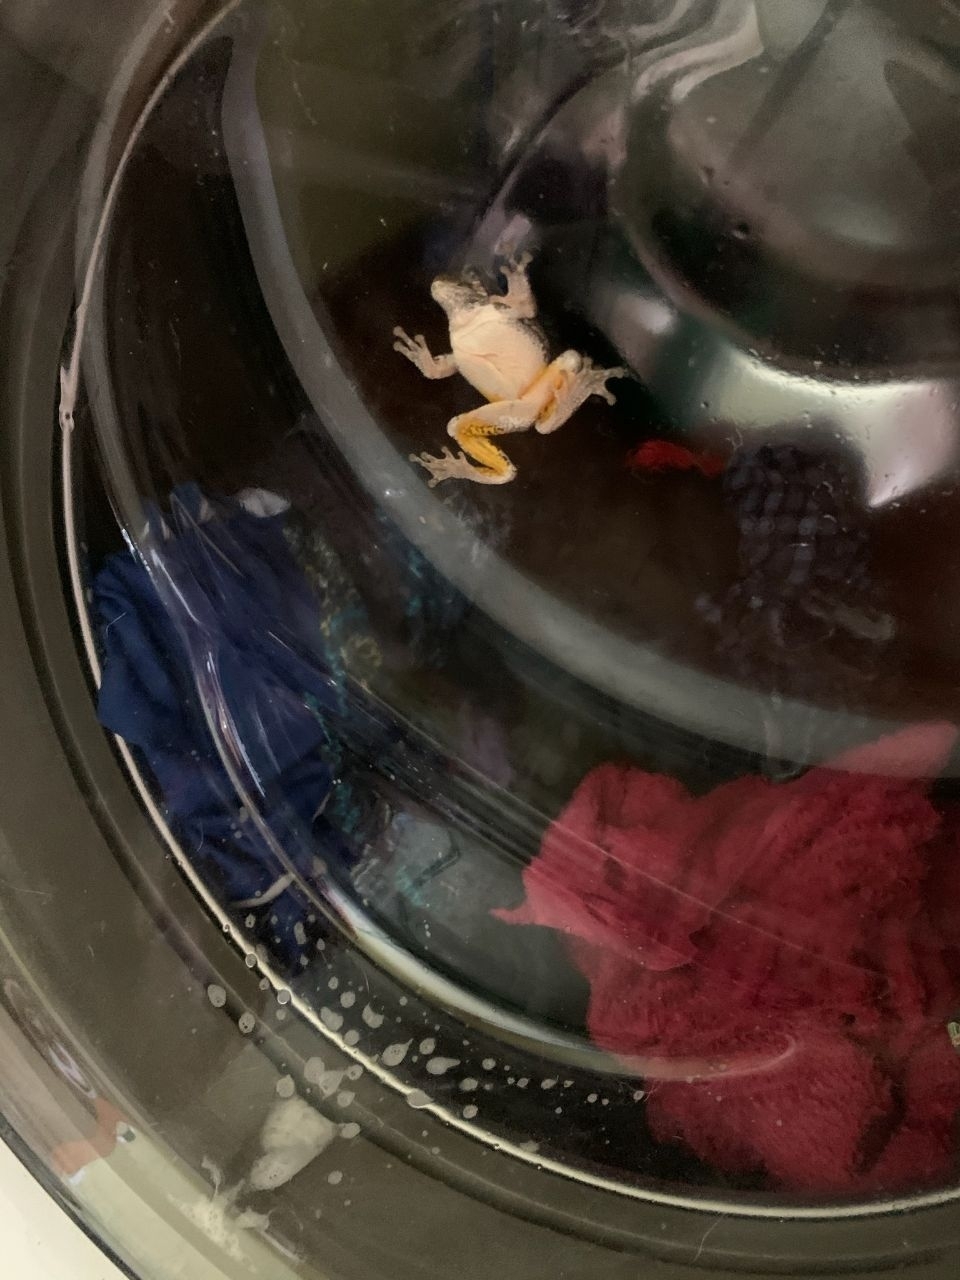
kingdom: Animalia
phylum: Chordata
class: Amphibia
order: Anura
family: Hylidae
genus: Hyla
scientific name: Hyla
